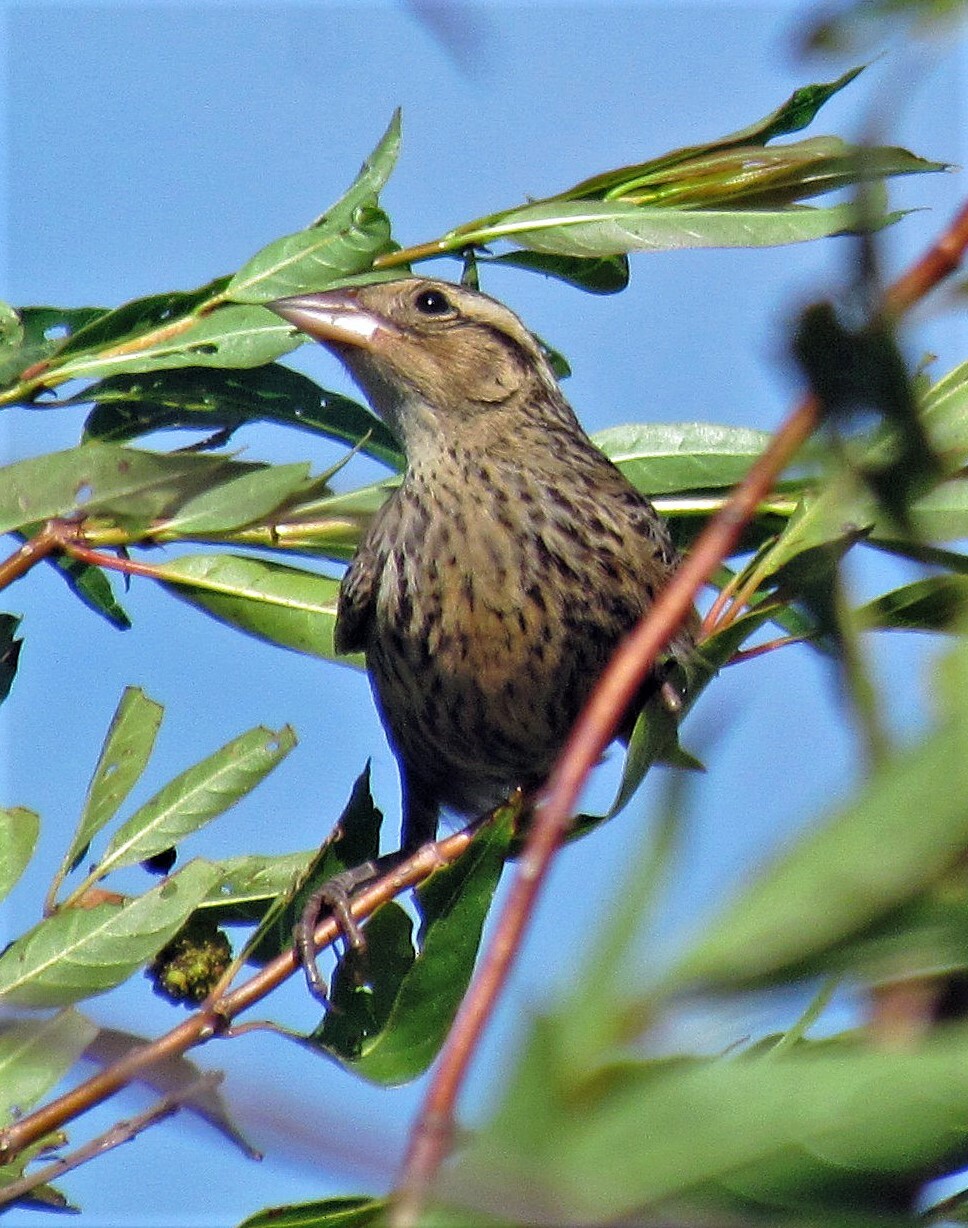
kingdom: Animalia
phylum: Chordata
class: Aves
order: Passeriformes
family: Icteridae
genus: Sturnella
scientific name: Sturnella superciliaris
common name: White-browed blackbird
